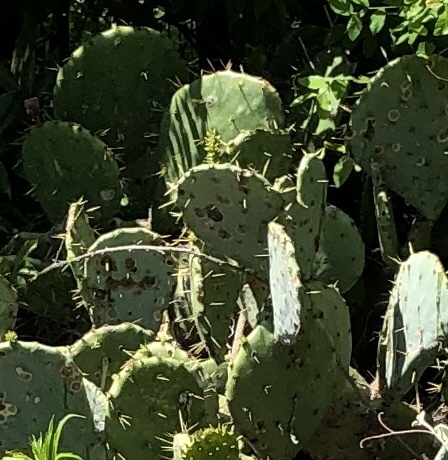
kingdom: Plantae
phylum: Tracheophyta
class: Magnoliopsida
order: Caryophyllales
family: Cactaceae
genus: Opuntia
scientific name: Opuntia engelmannii
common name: Cactus-apple
